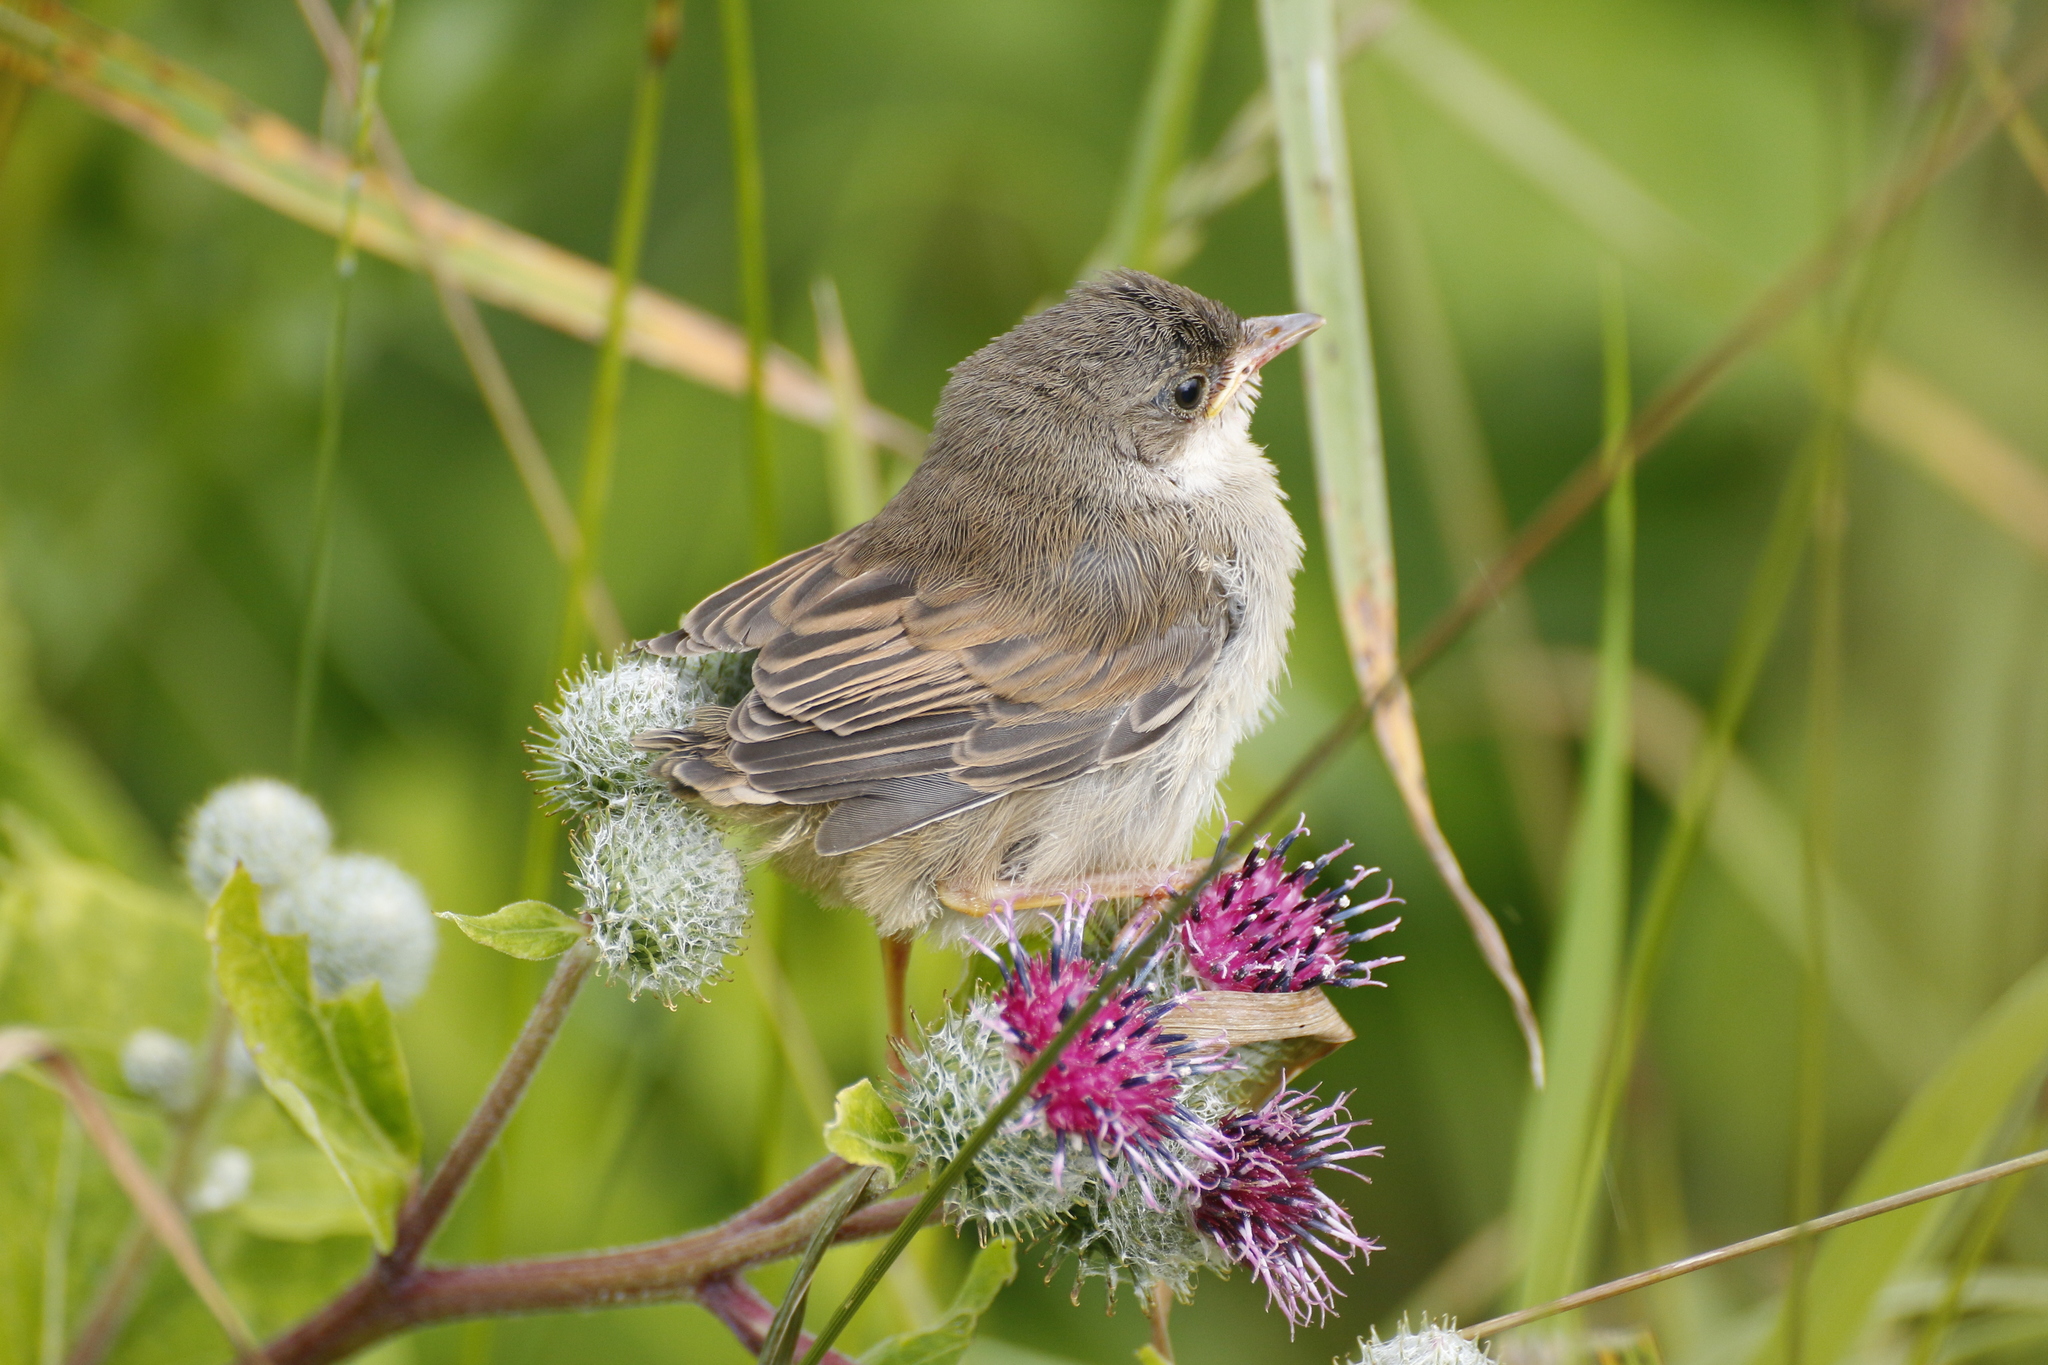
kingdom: Animalia
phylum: Chordata
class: Aves
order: Passeriformes
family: Sylviidae
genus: Sylvia
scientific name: Sylvia communis
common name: Common whitethroat
